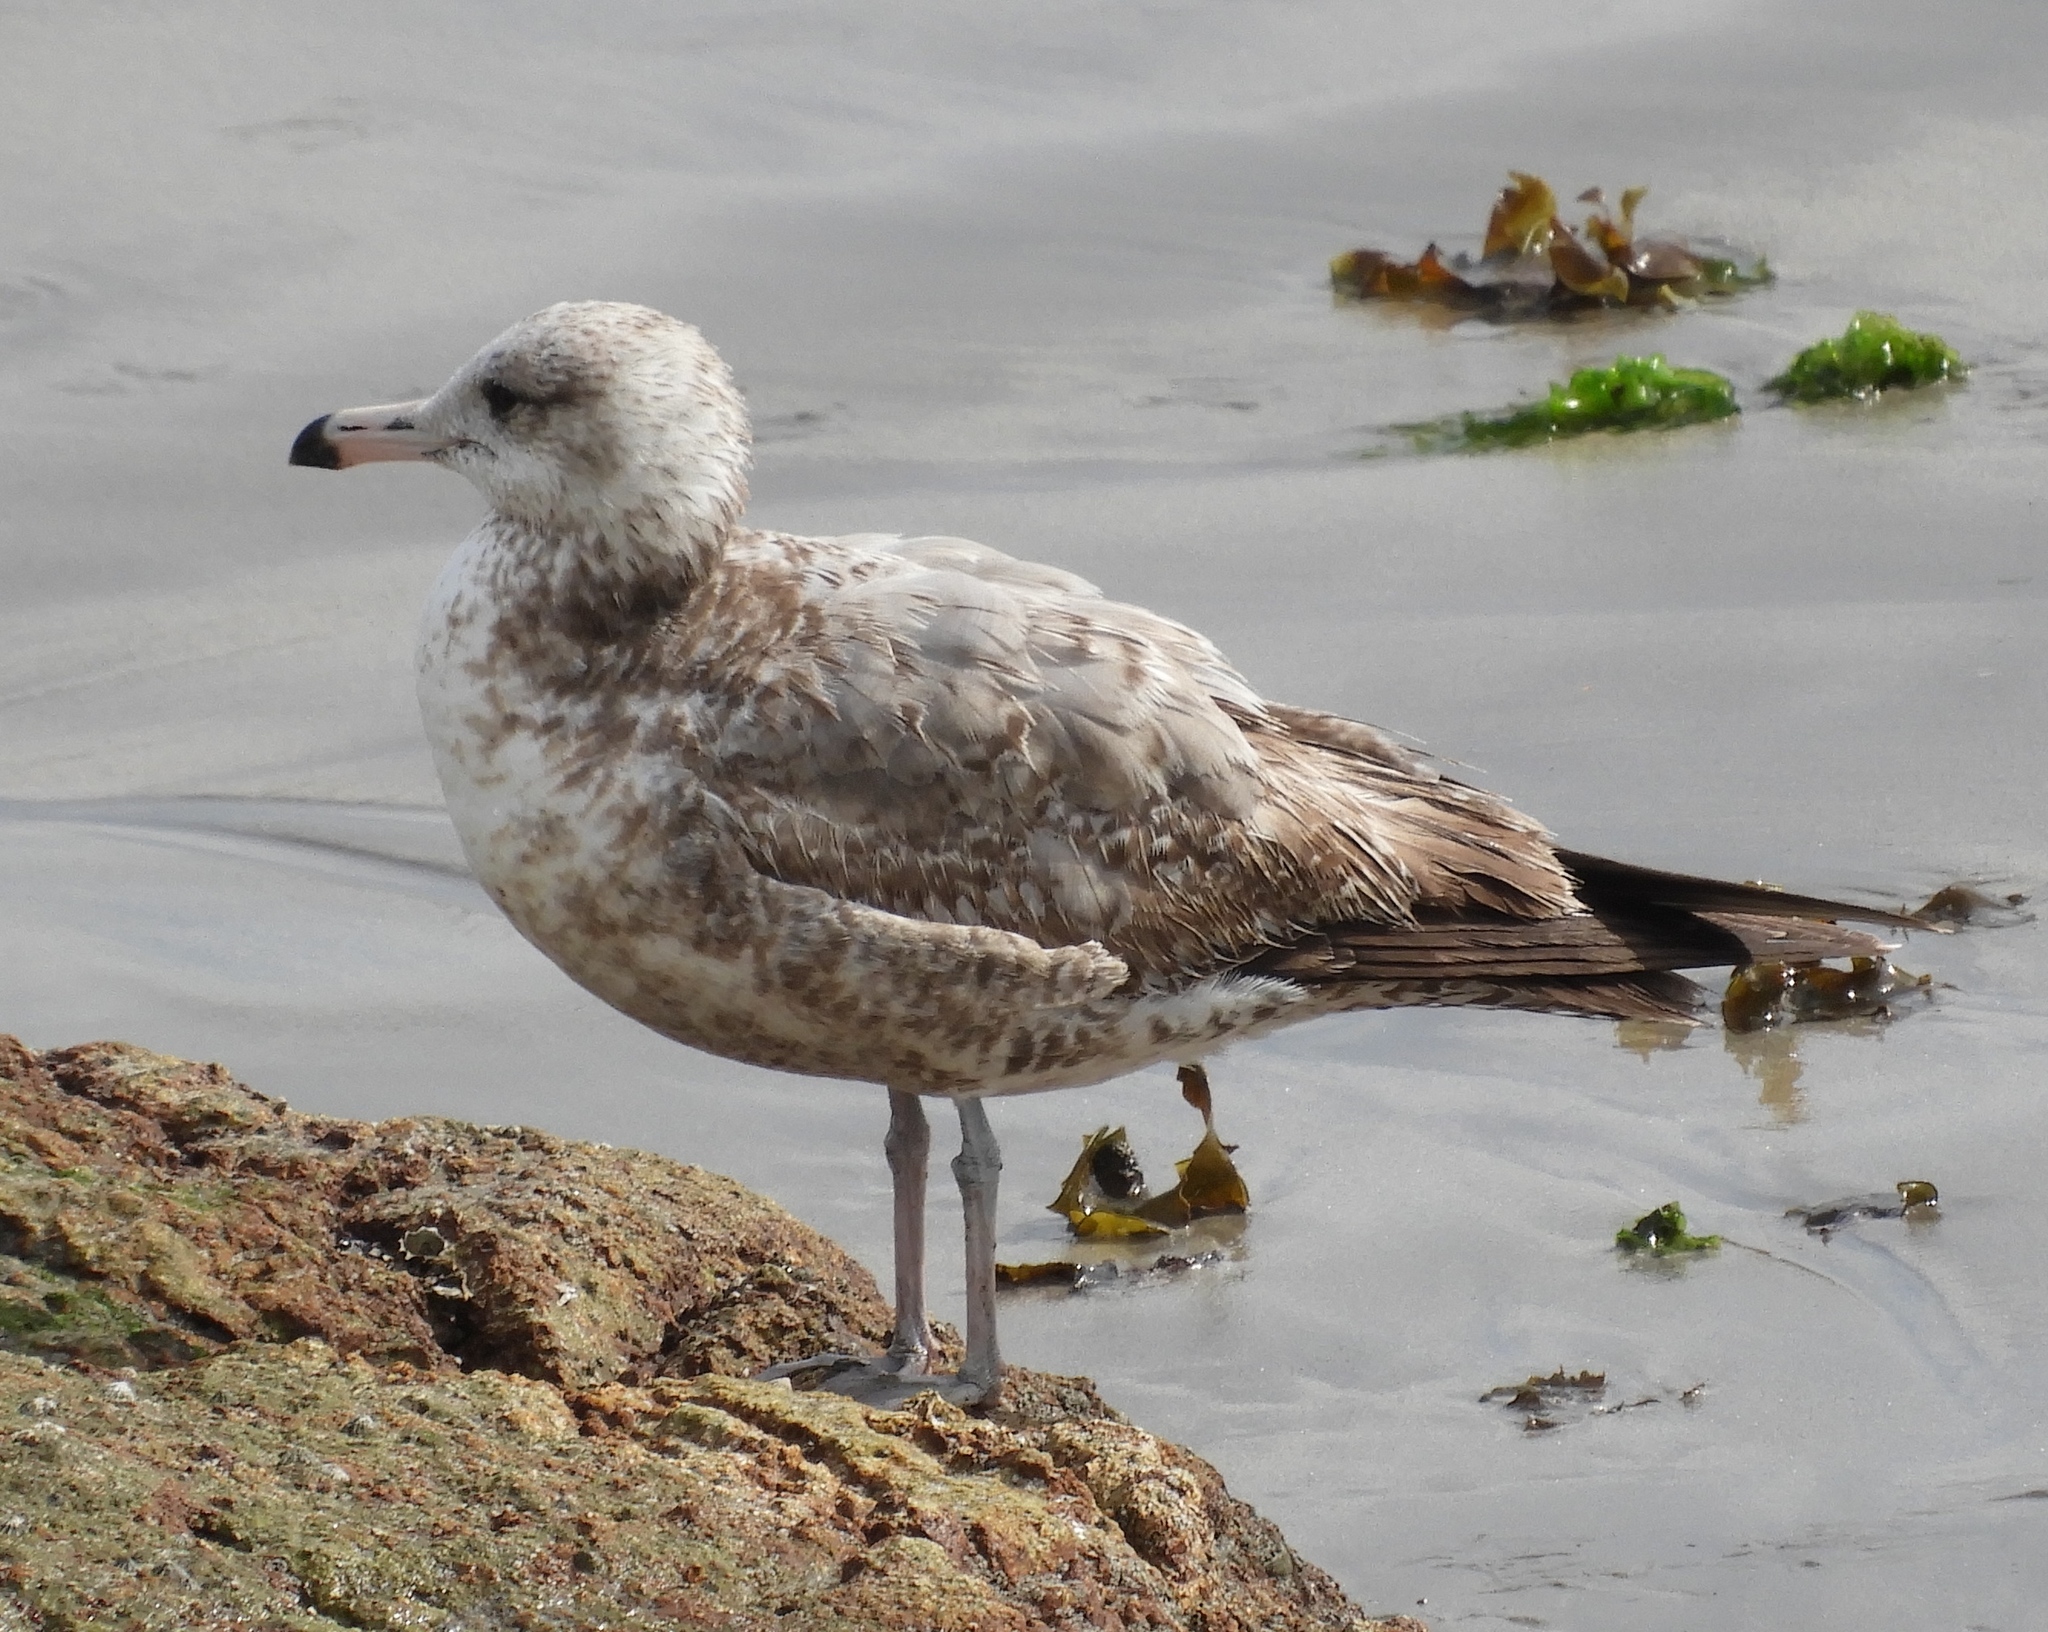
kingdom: Animalia
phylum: Chordata
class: Aves
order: Charadriiformes
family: Laridae
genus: Larus
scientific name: Larus californicus
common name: California gull
